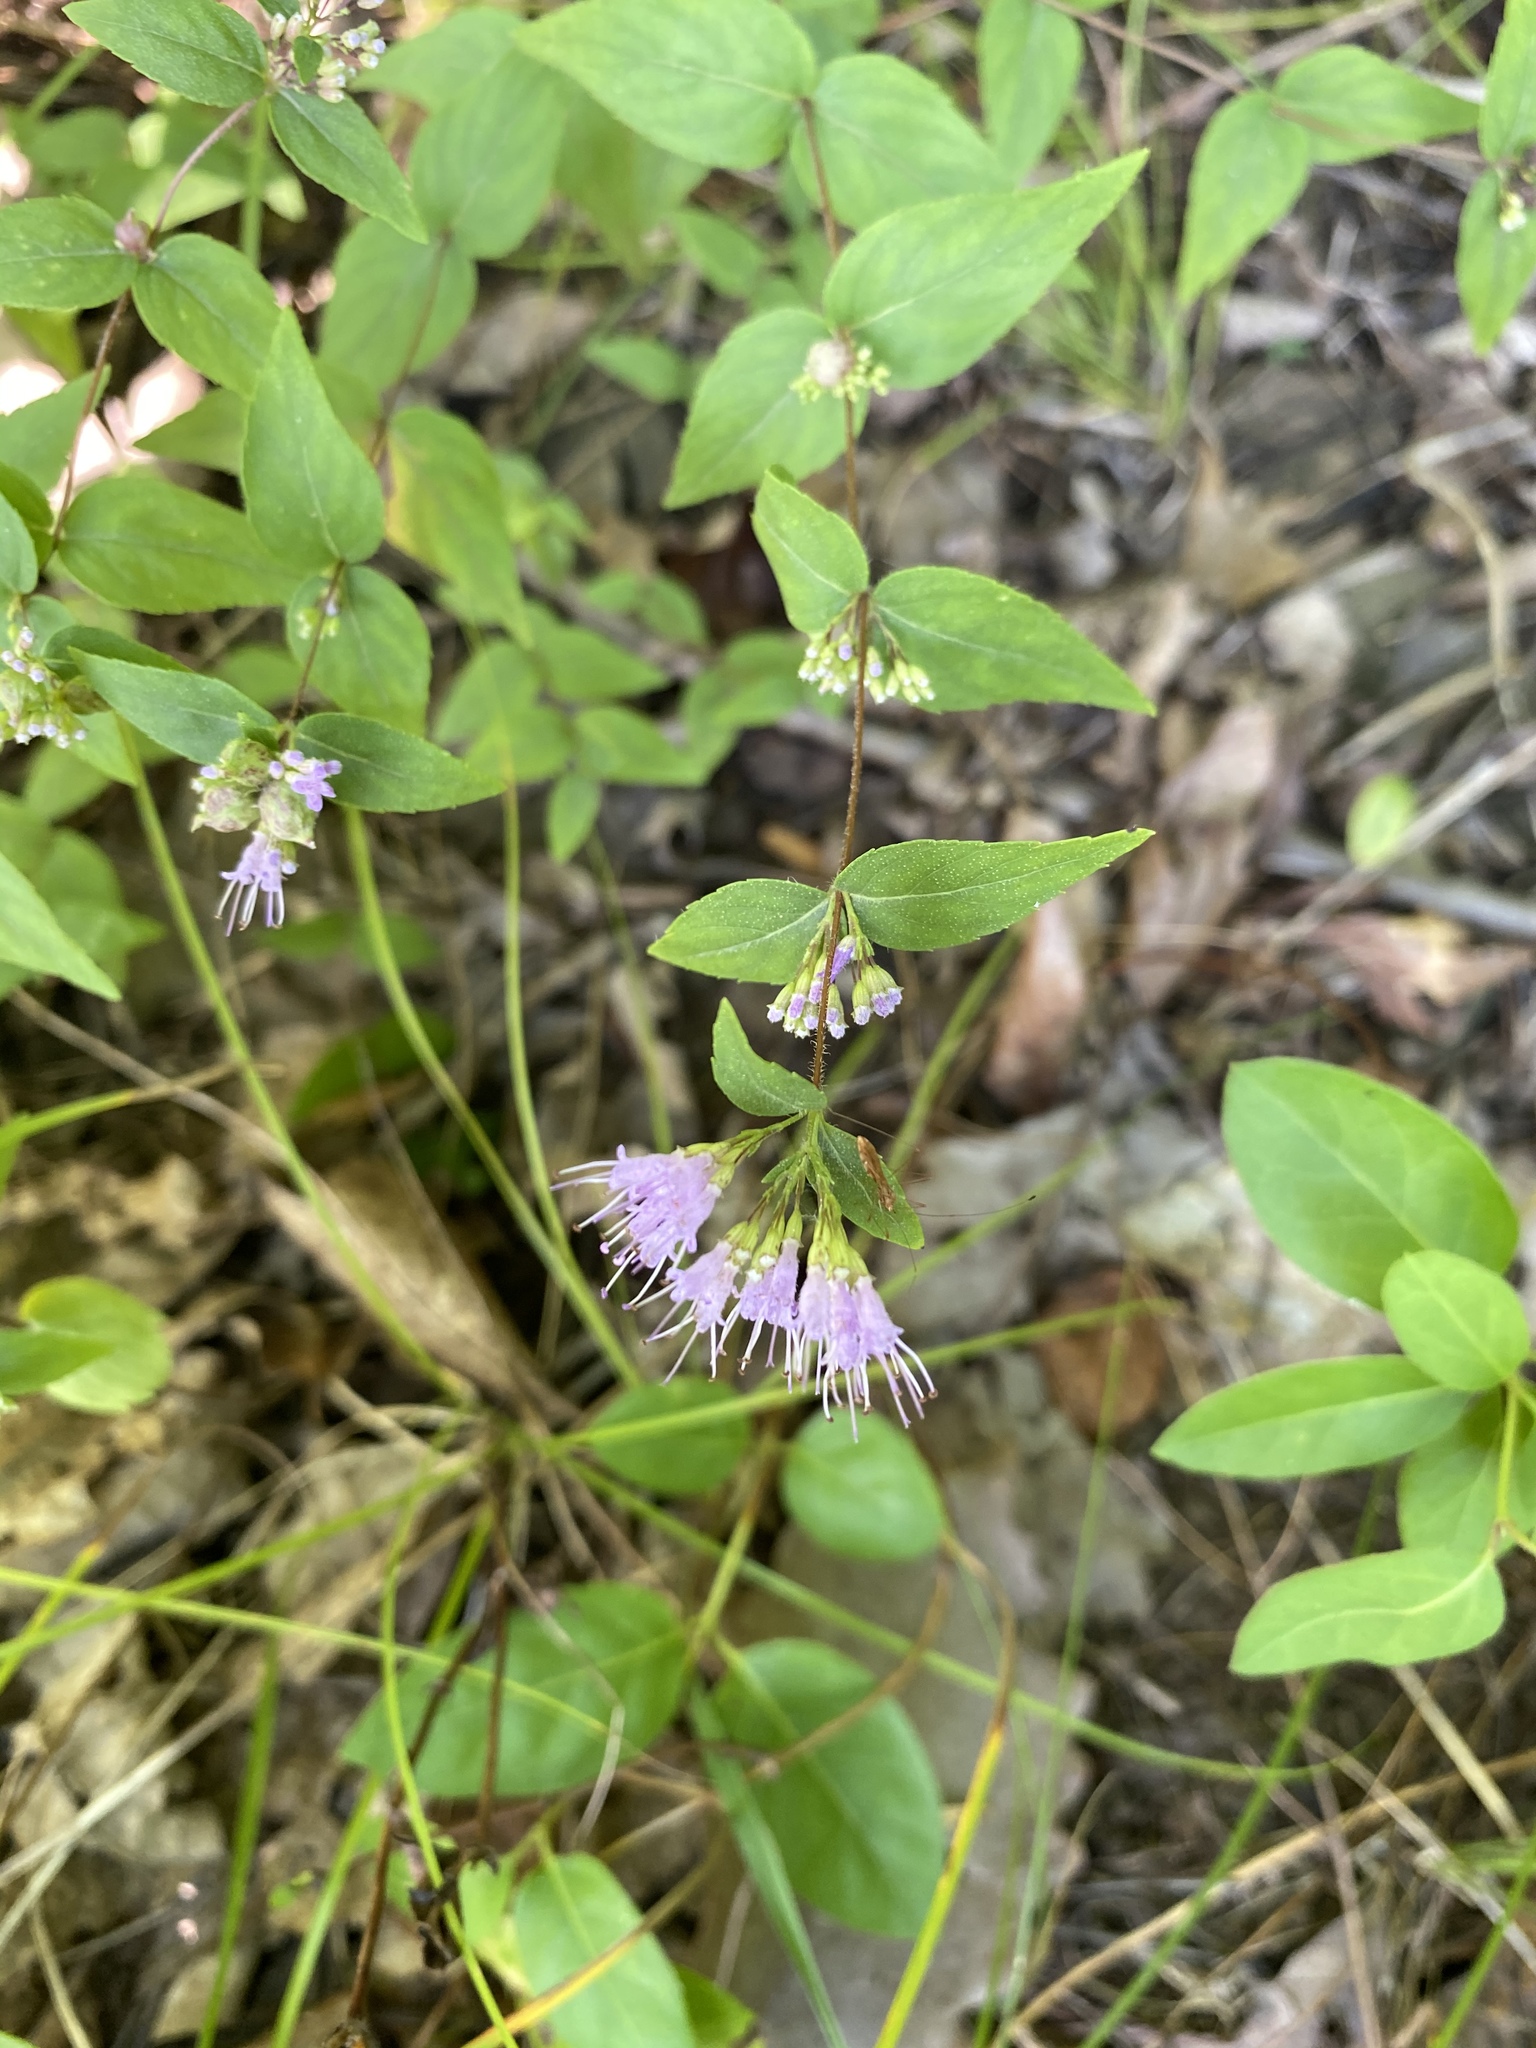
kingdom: Plantae
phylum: Tracheophyta
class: Magnoliopsida
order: Lamiales
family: Lamiaceae
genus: Cunila
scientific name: Cunila origanoides
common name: American dittany
